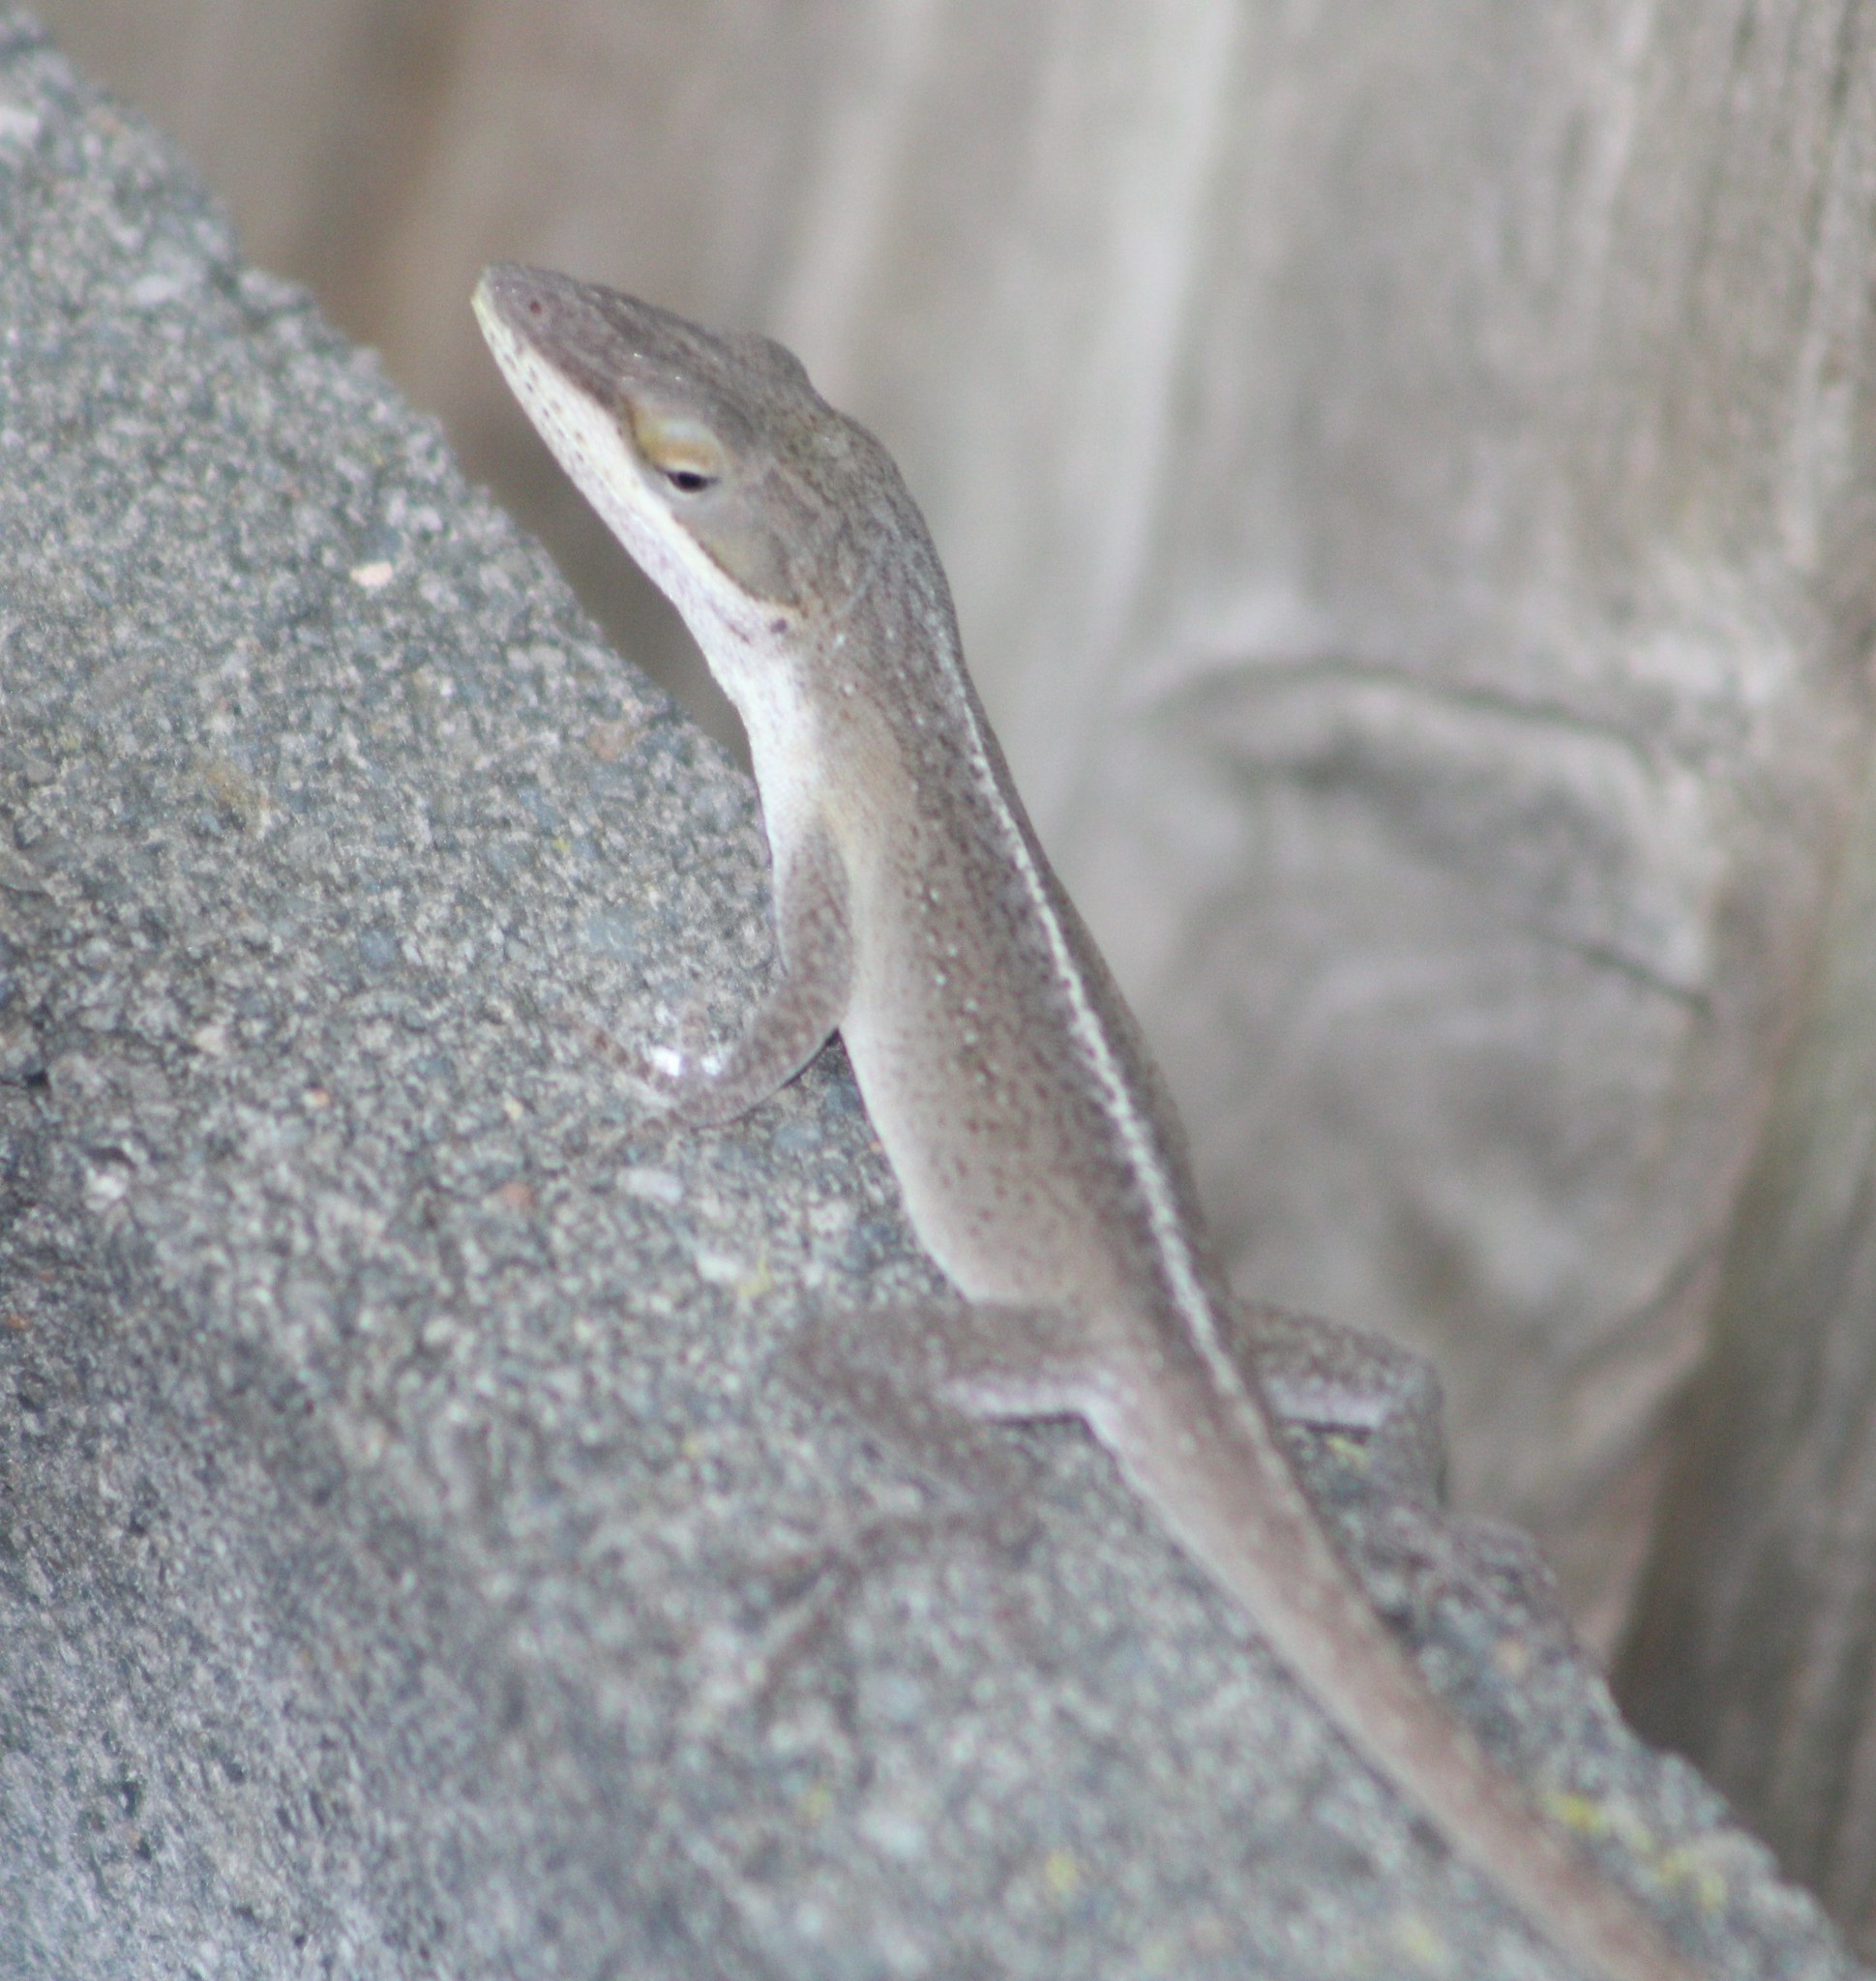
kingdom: Animalia
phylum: Chordata
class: Squamata
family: Dactyloidae
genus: Anolis
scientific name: Anolis carolinensis
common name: Green anole
